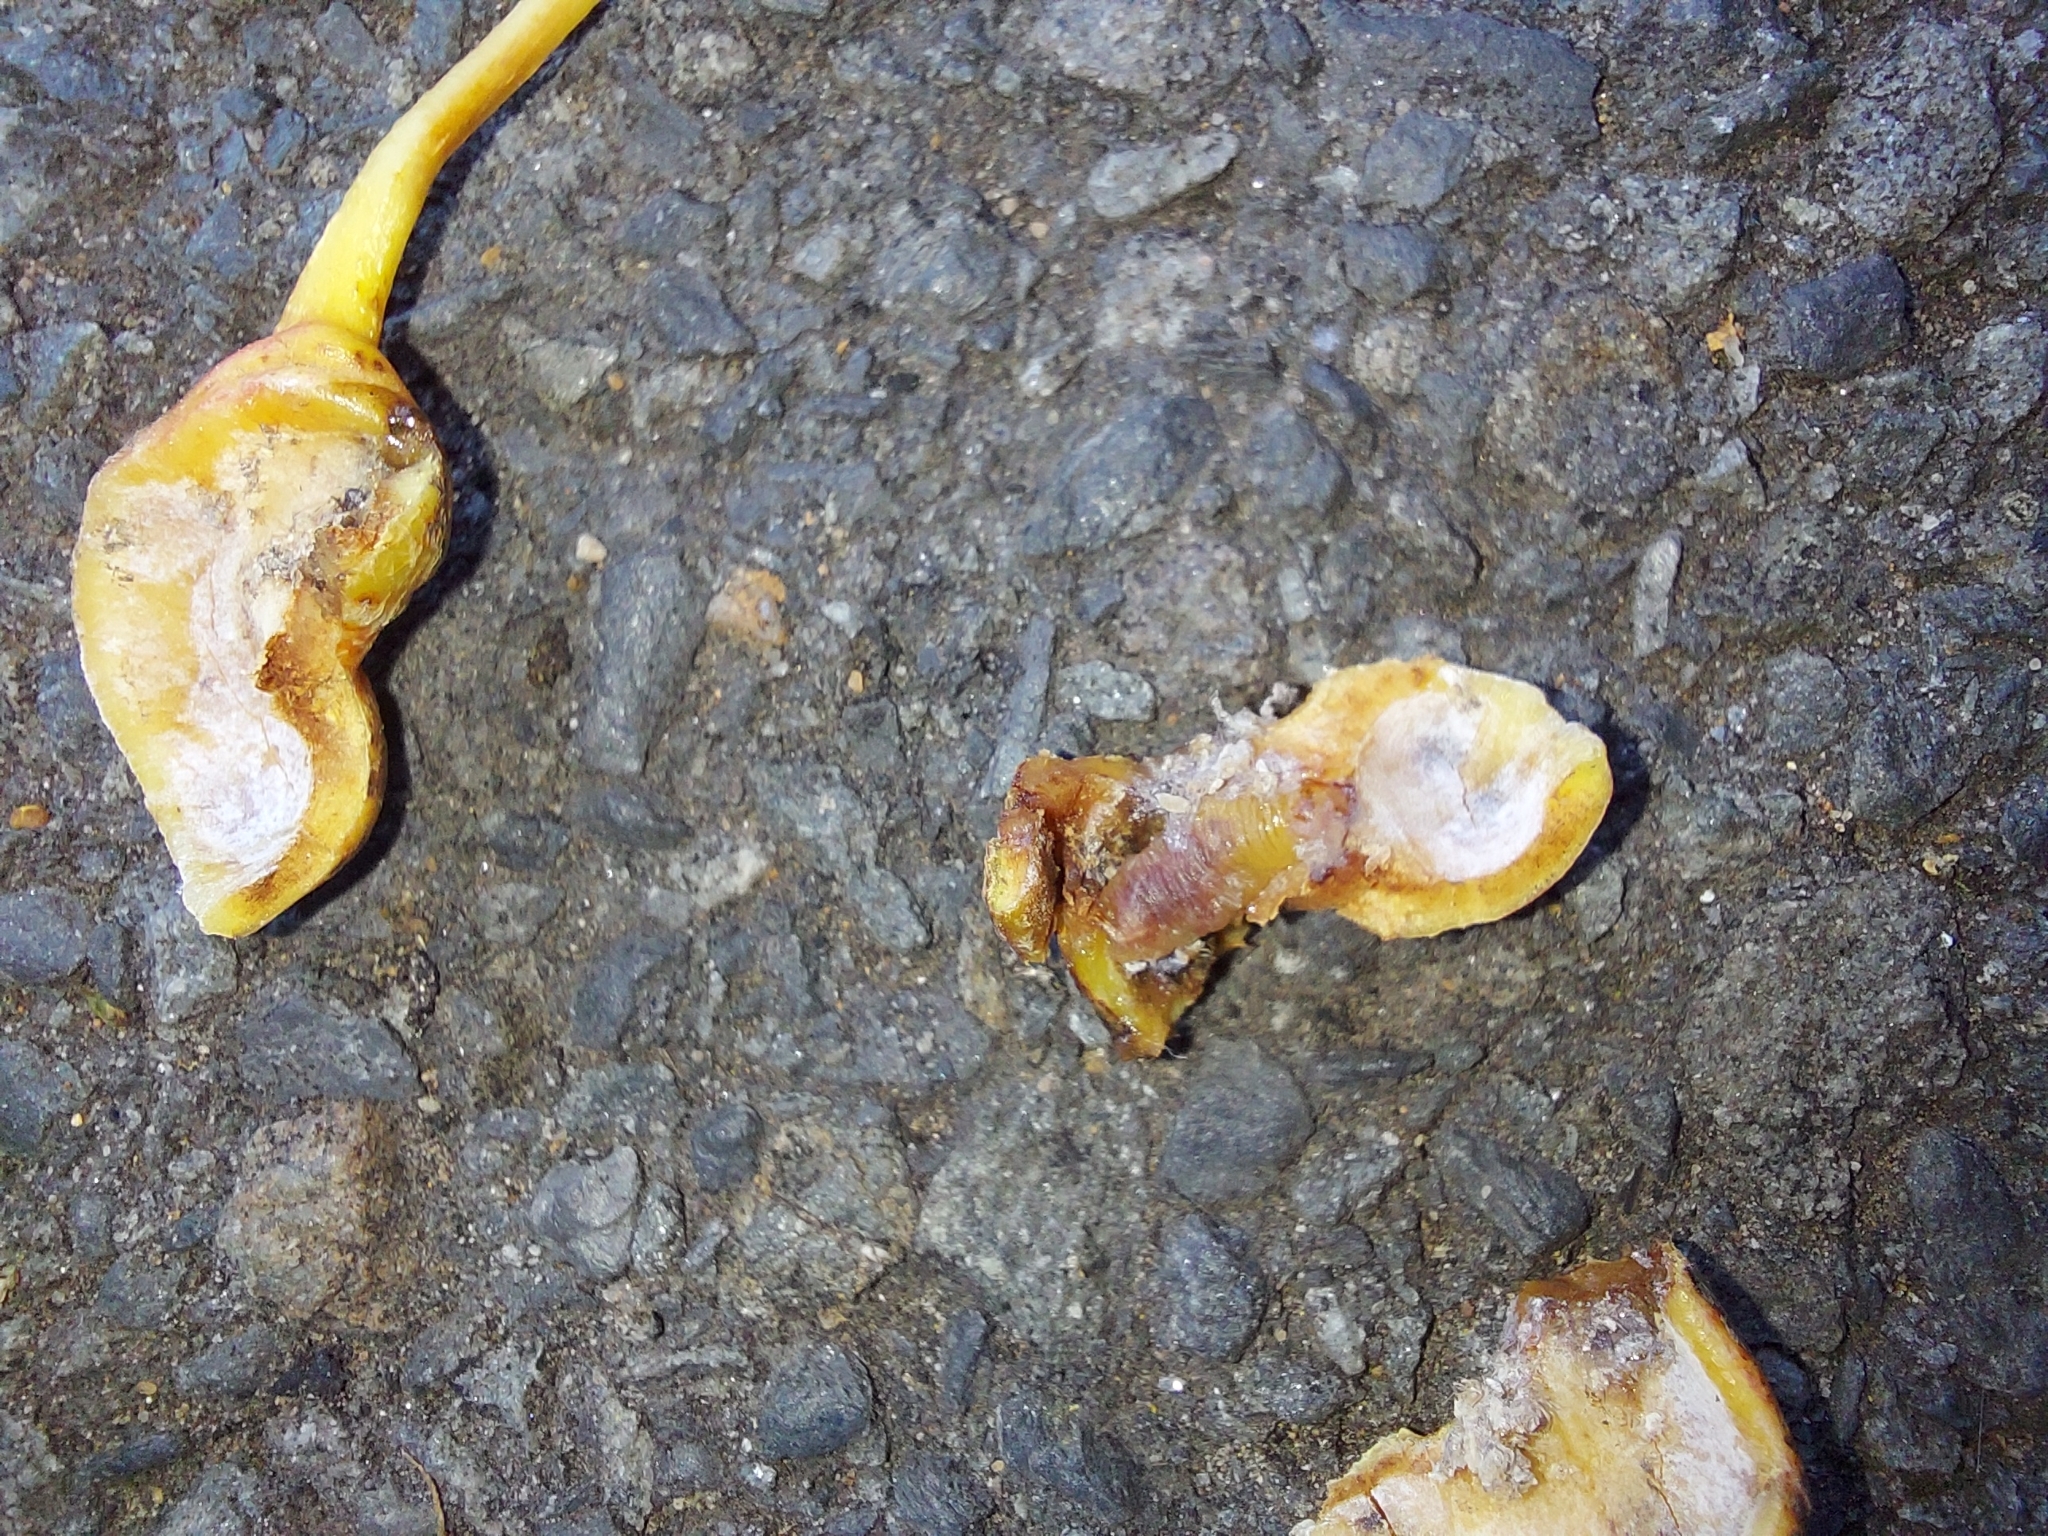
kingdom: Animalia
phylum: Arthropoda
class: Insecta
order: Diptera
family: Syrphidae
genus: Heringia
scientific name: Heringia heringi
